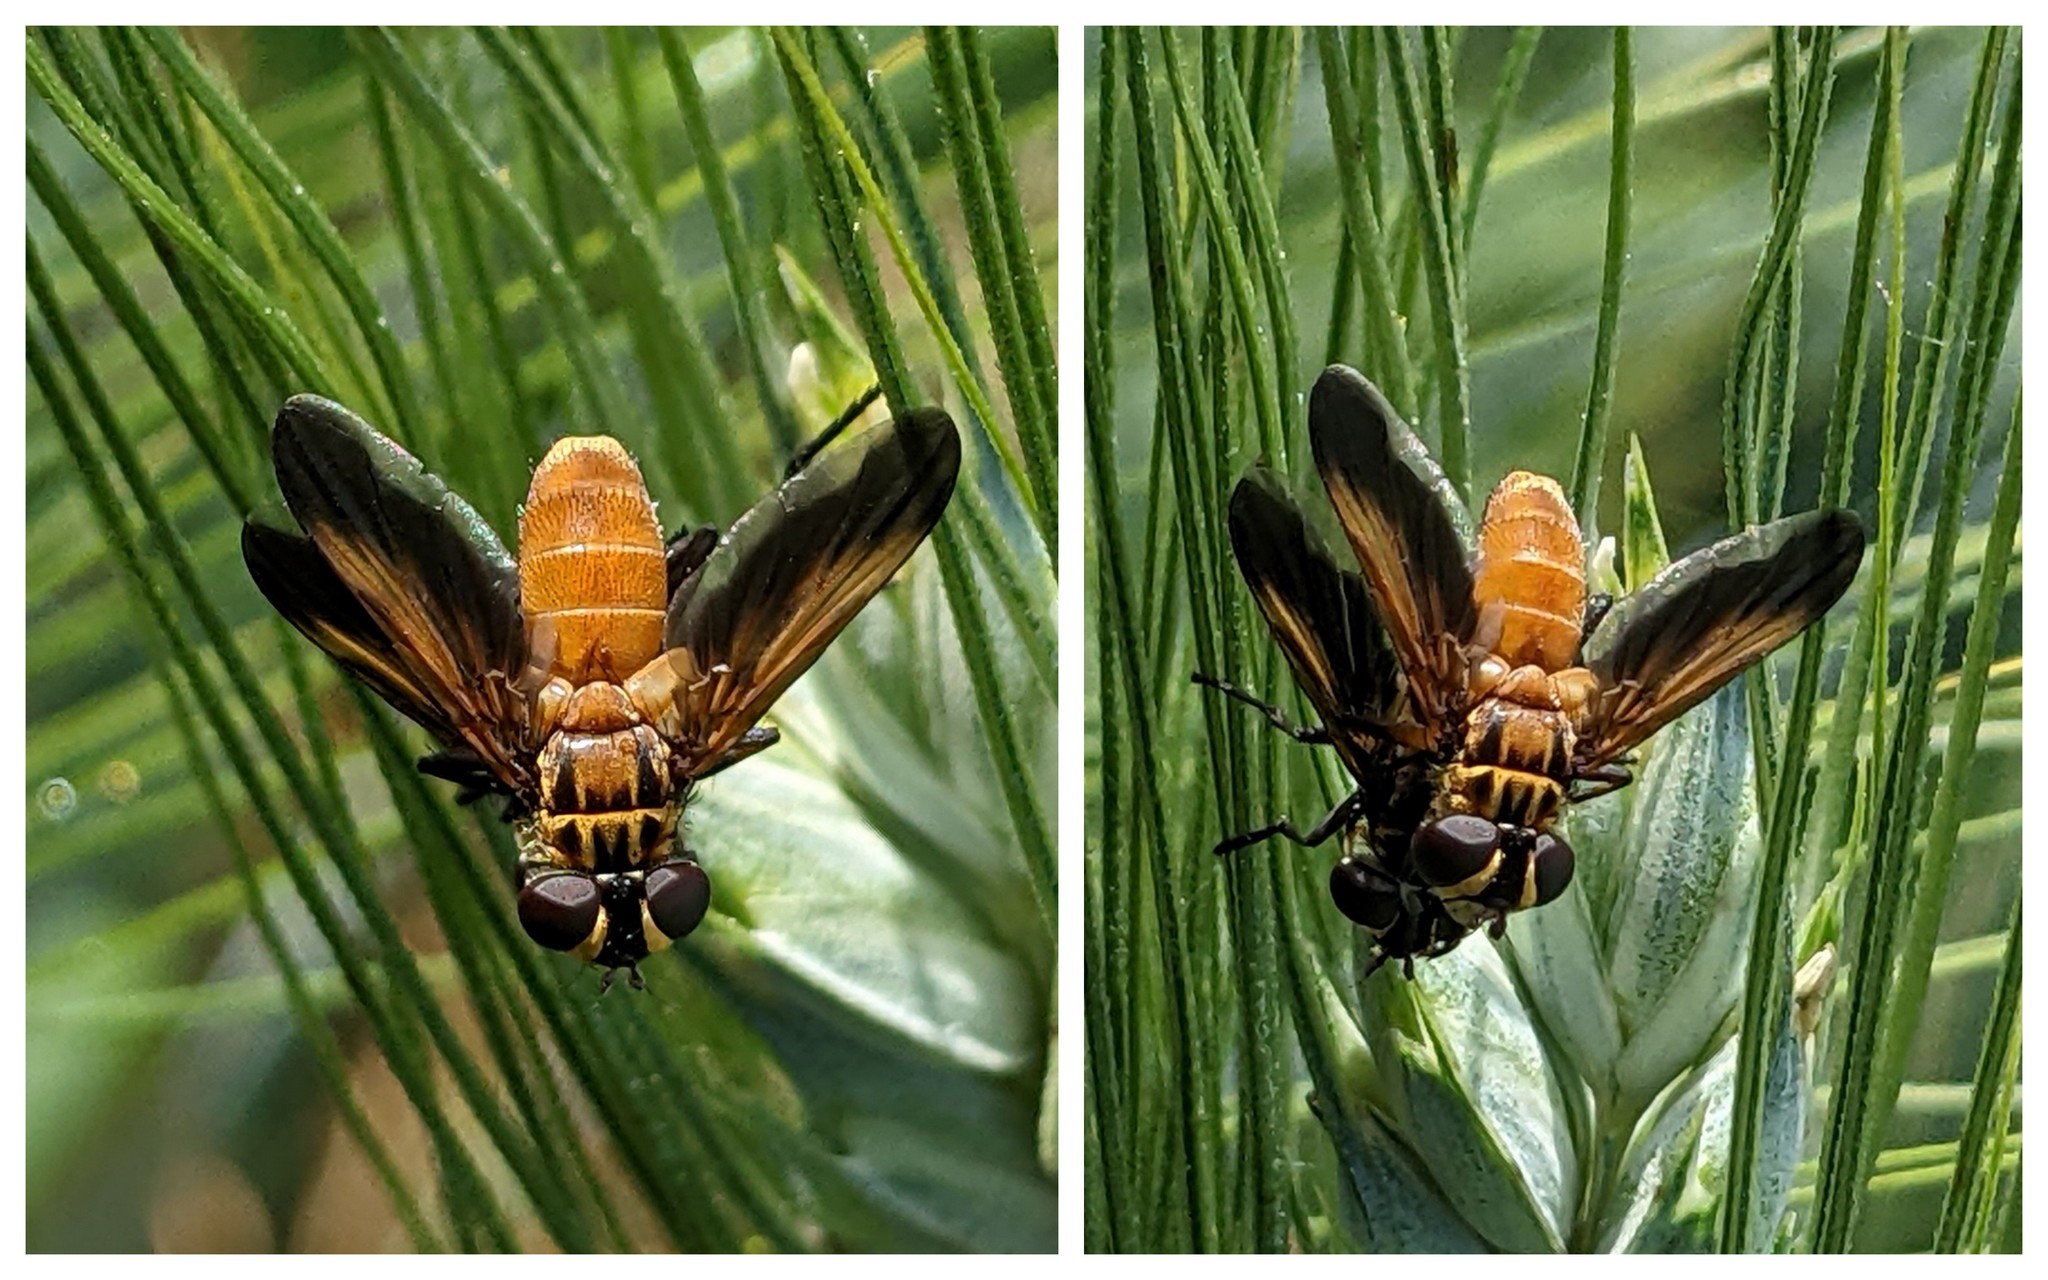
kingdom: Animalia
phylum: Arthropoda
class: Insecta
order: Diptera
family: Tachinidae
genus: Trichopoda
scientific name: Trichopoda pictipennis
